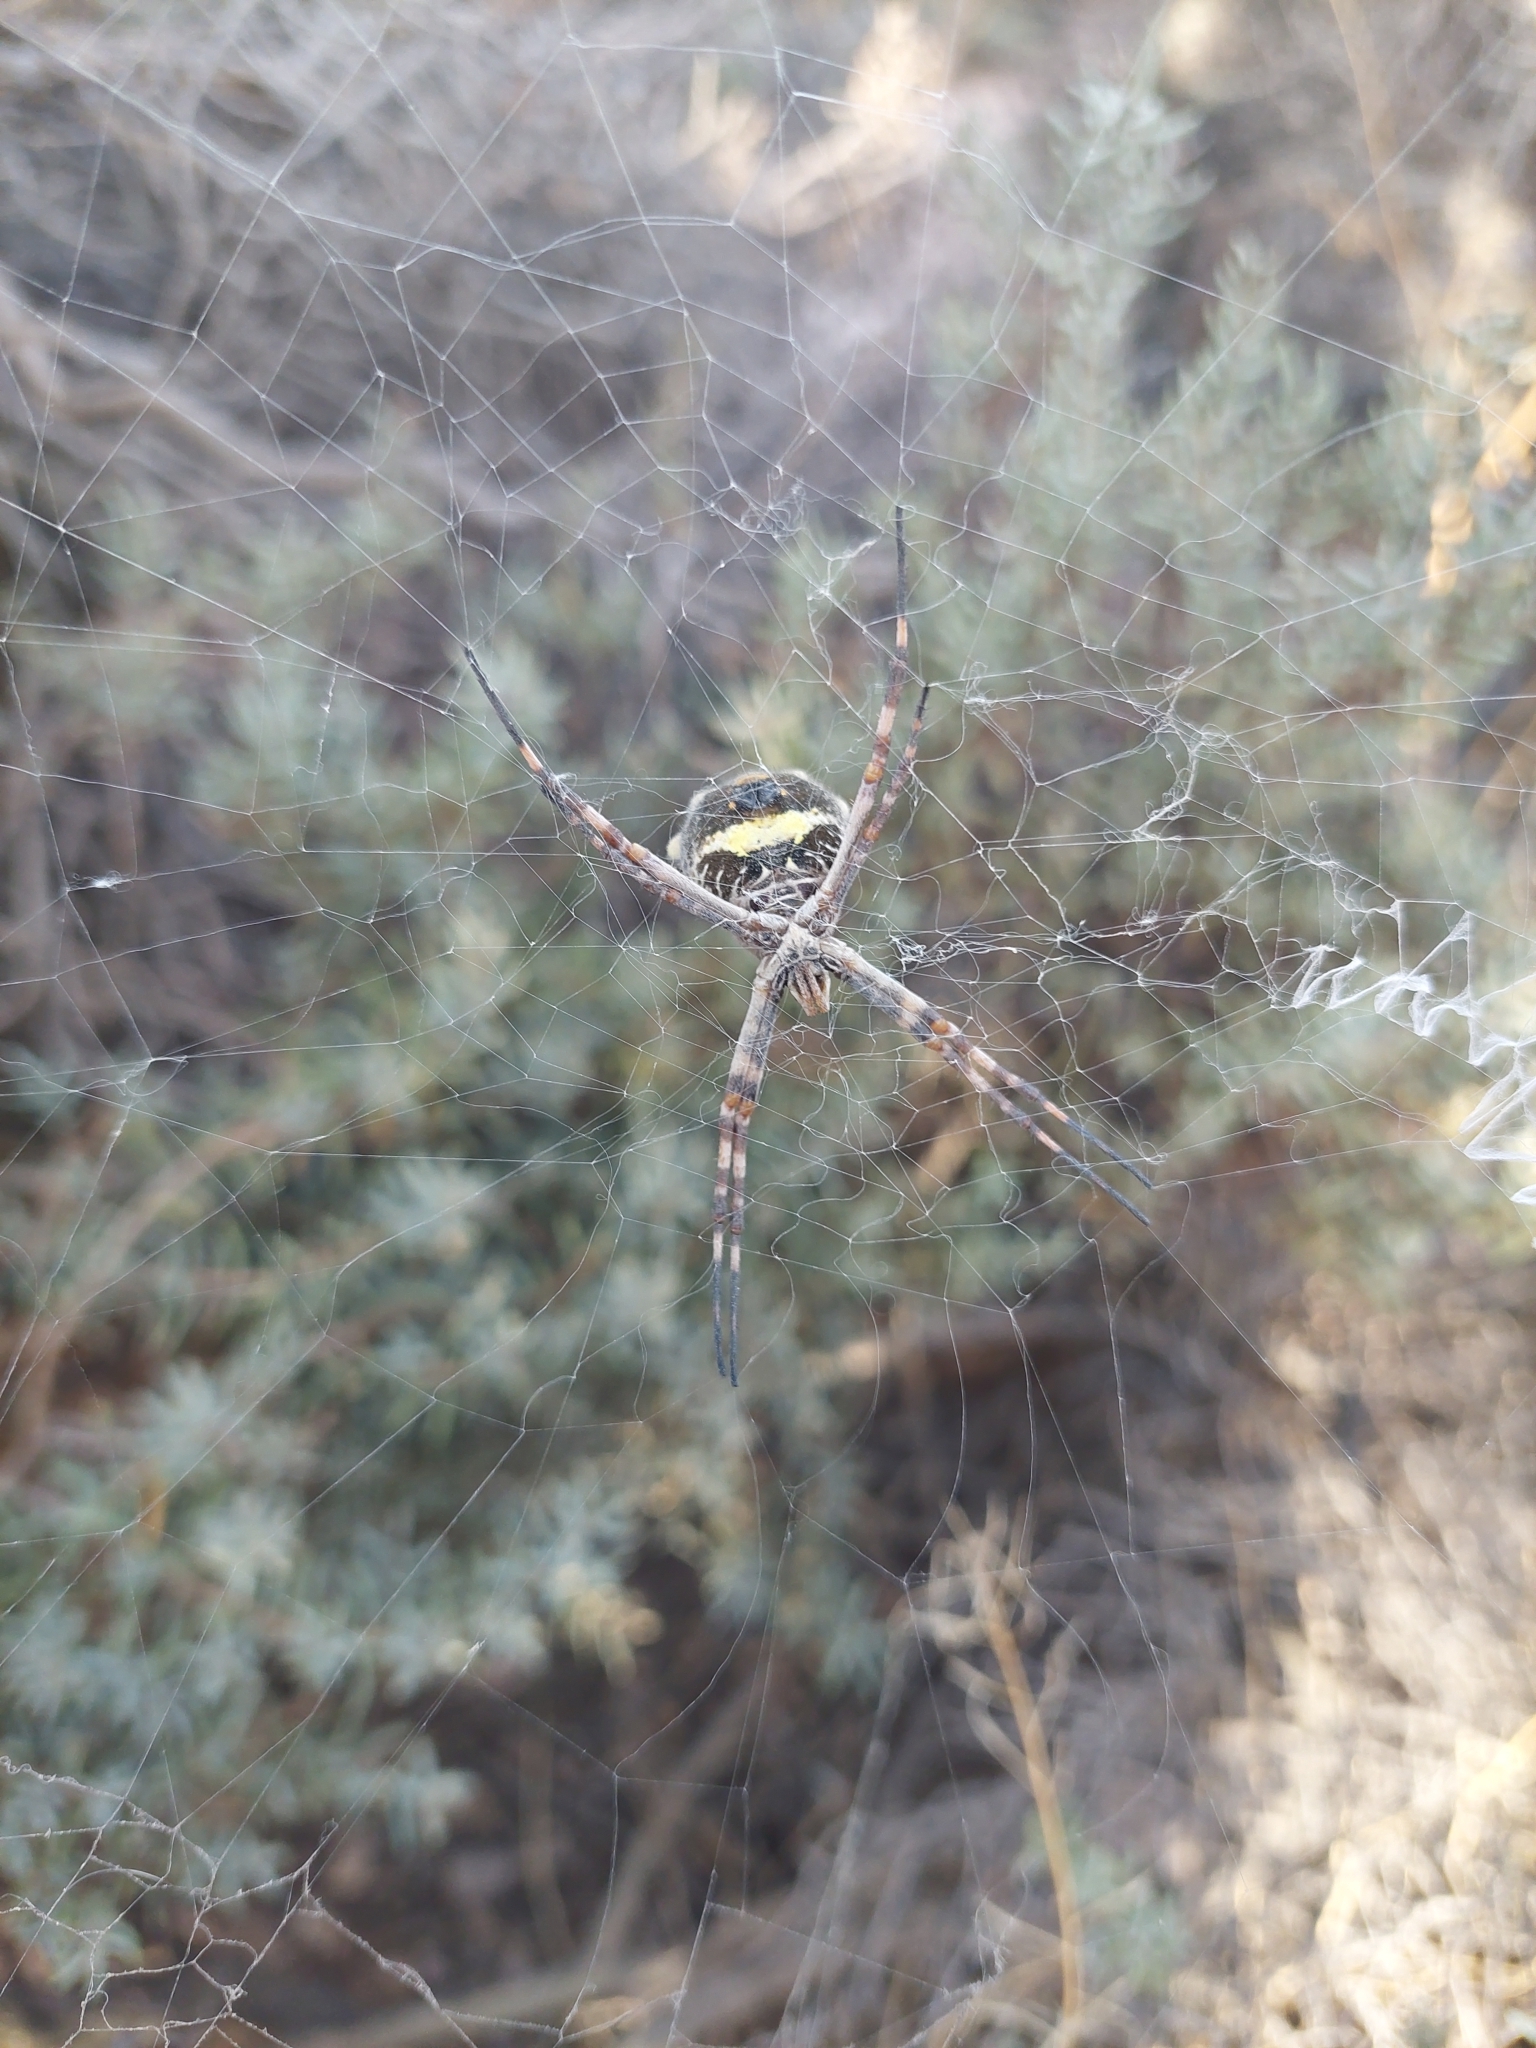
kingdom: Animalia
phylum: Arthropoda
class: Arachnida
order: Araneae
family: Araneidae
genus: Argiope
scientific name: Argiope argentata
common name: Orb weavers
